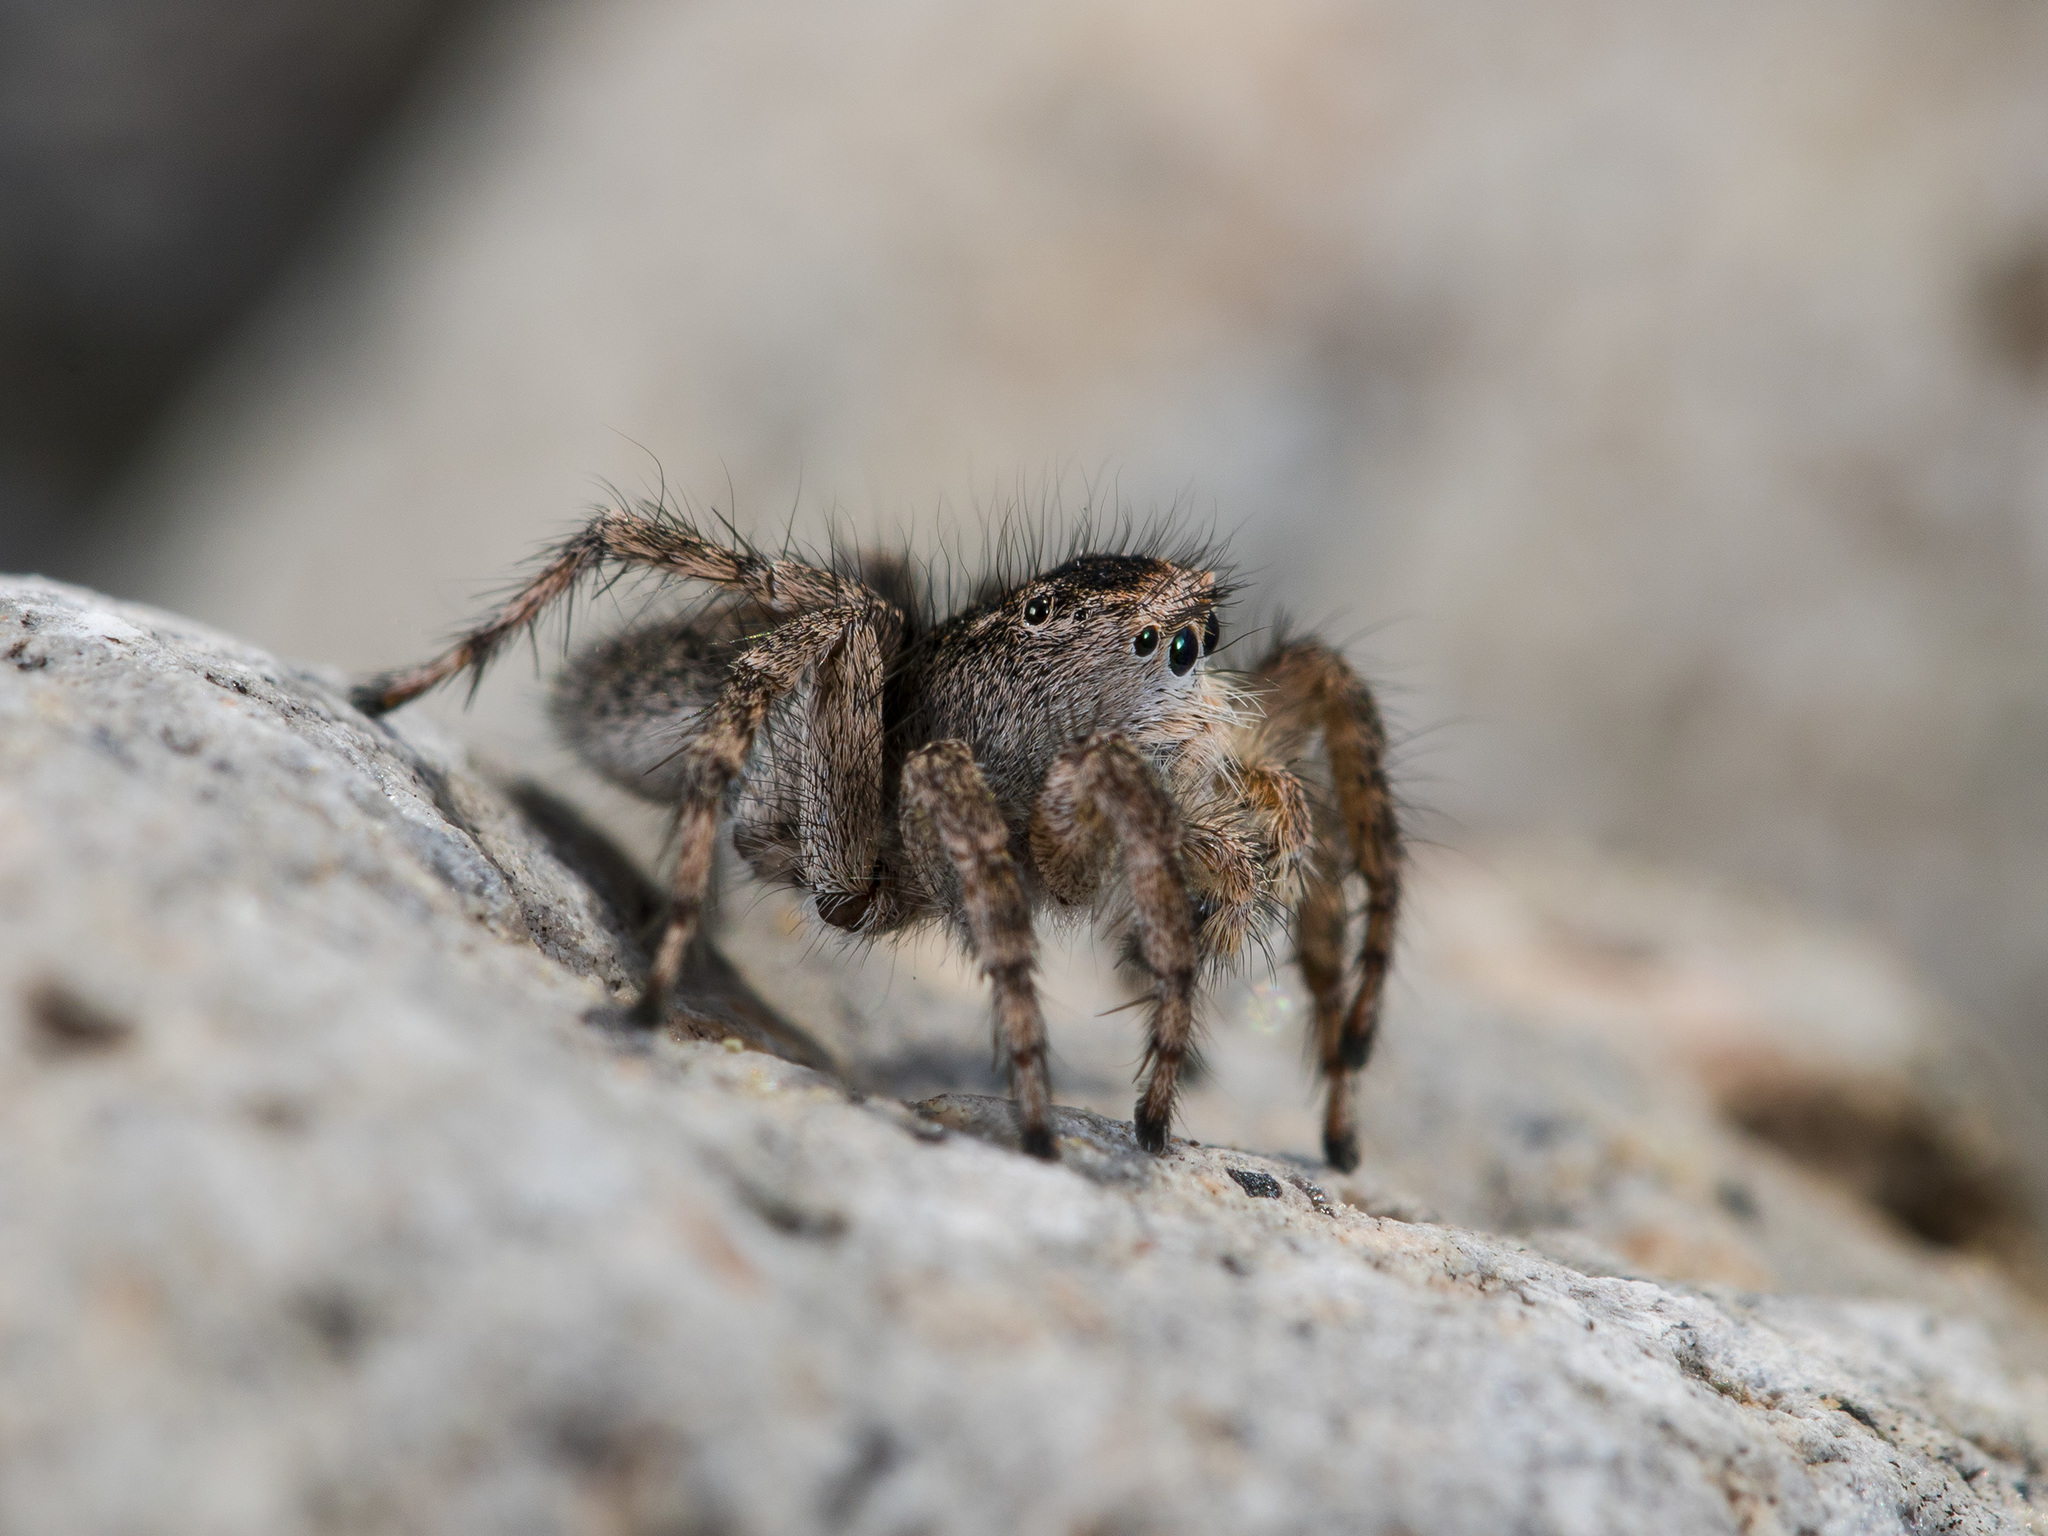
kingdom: Animalia
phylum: Arthropoda
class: Arachnida
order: Araneae
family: Salticidae
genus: Aelurillus
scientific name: Aelurillus dubatolovi
